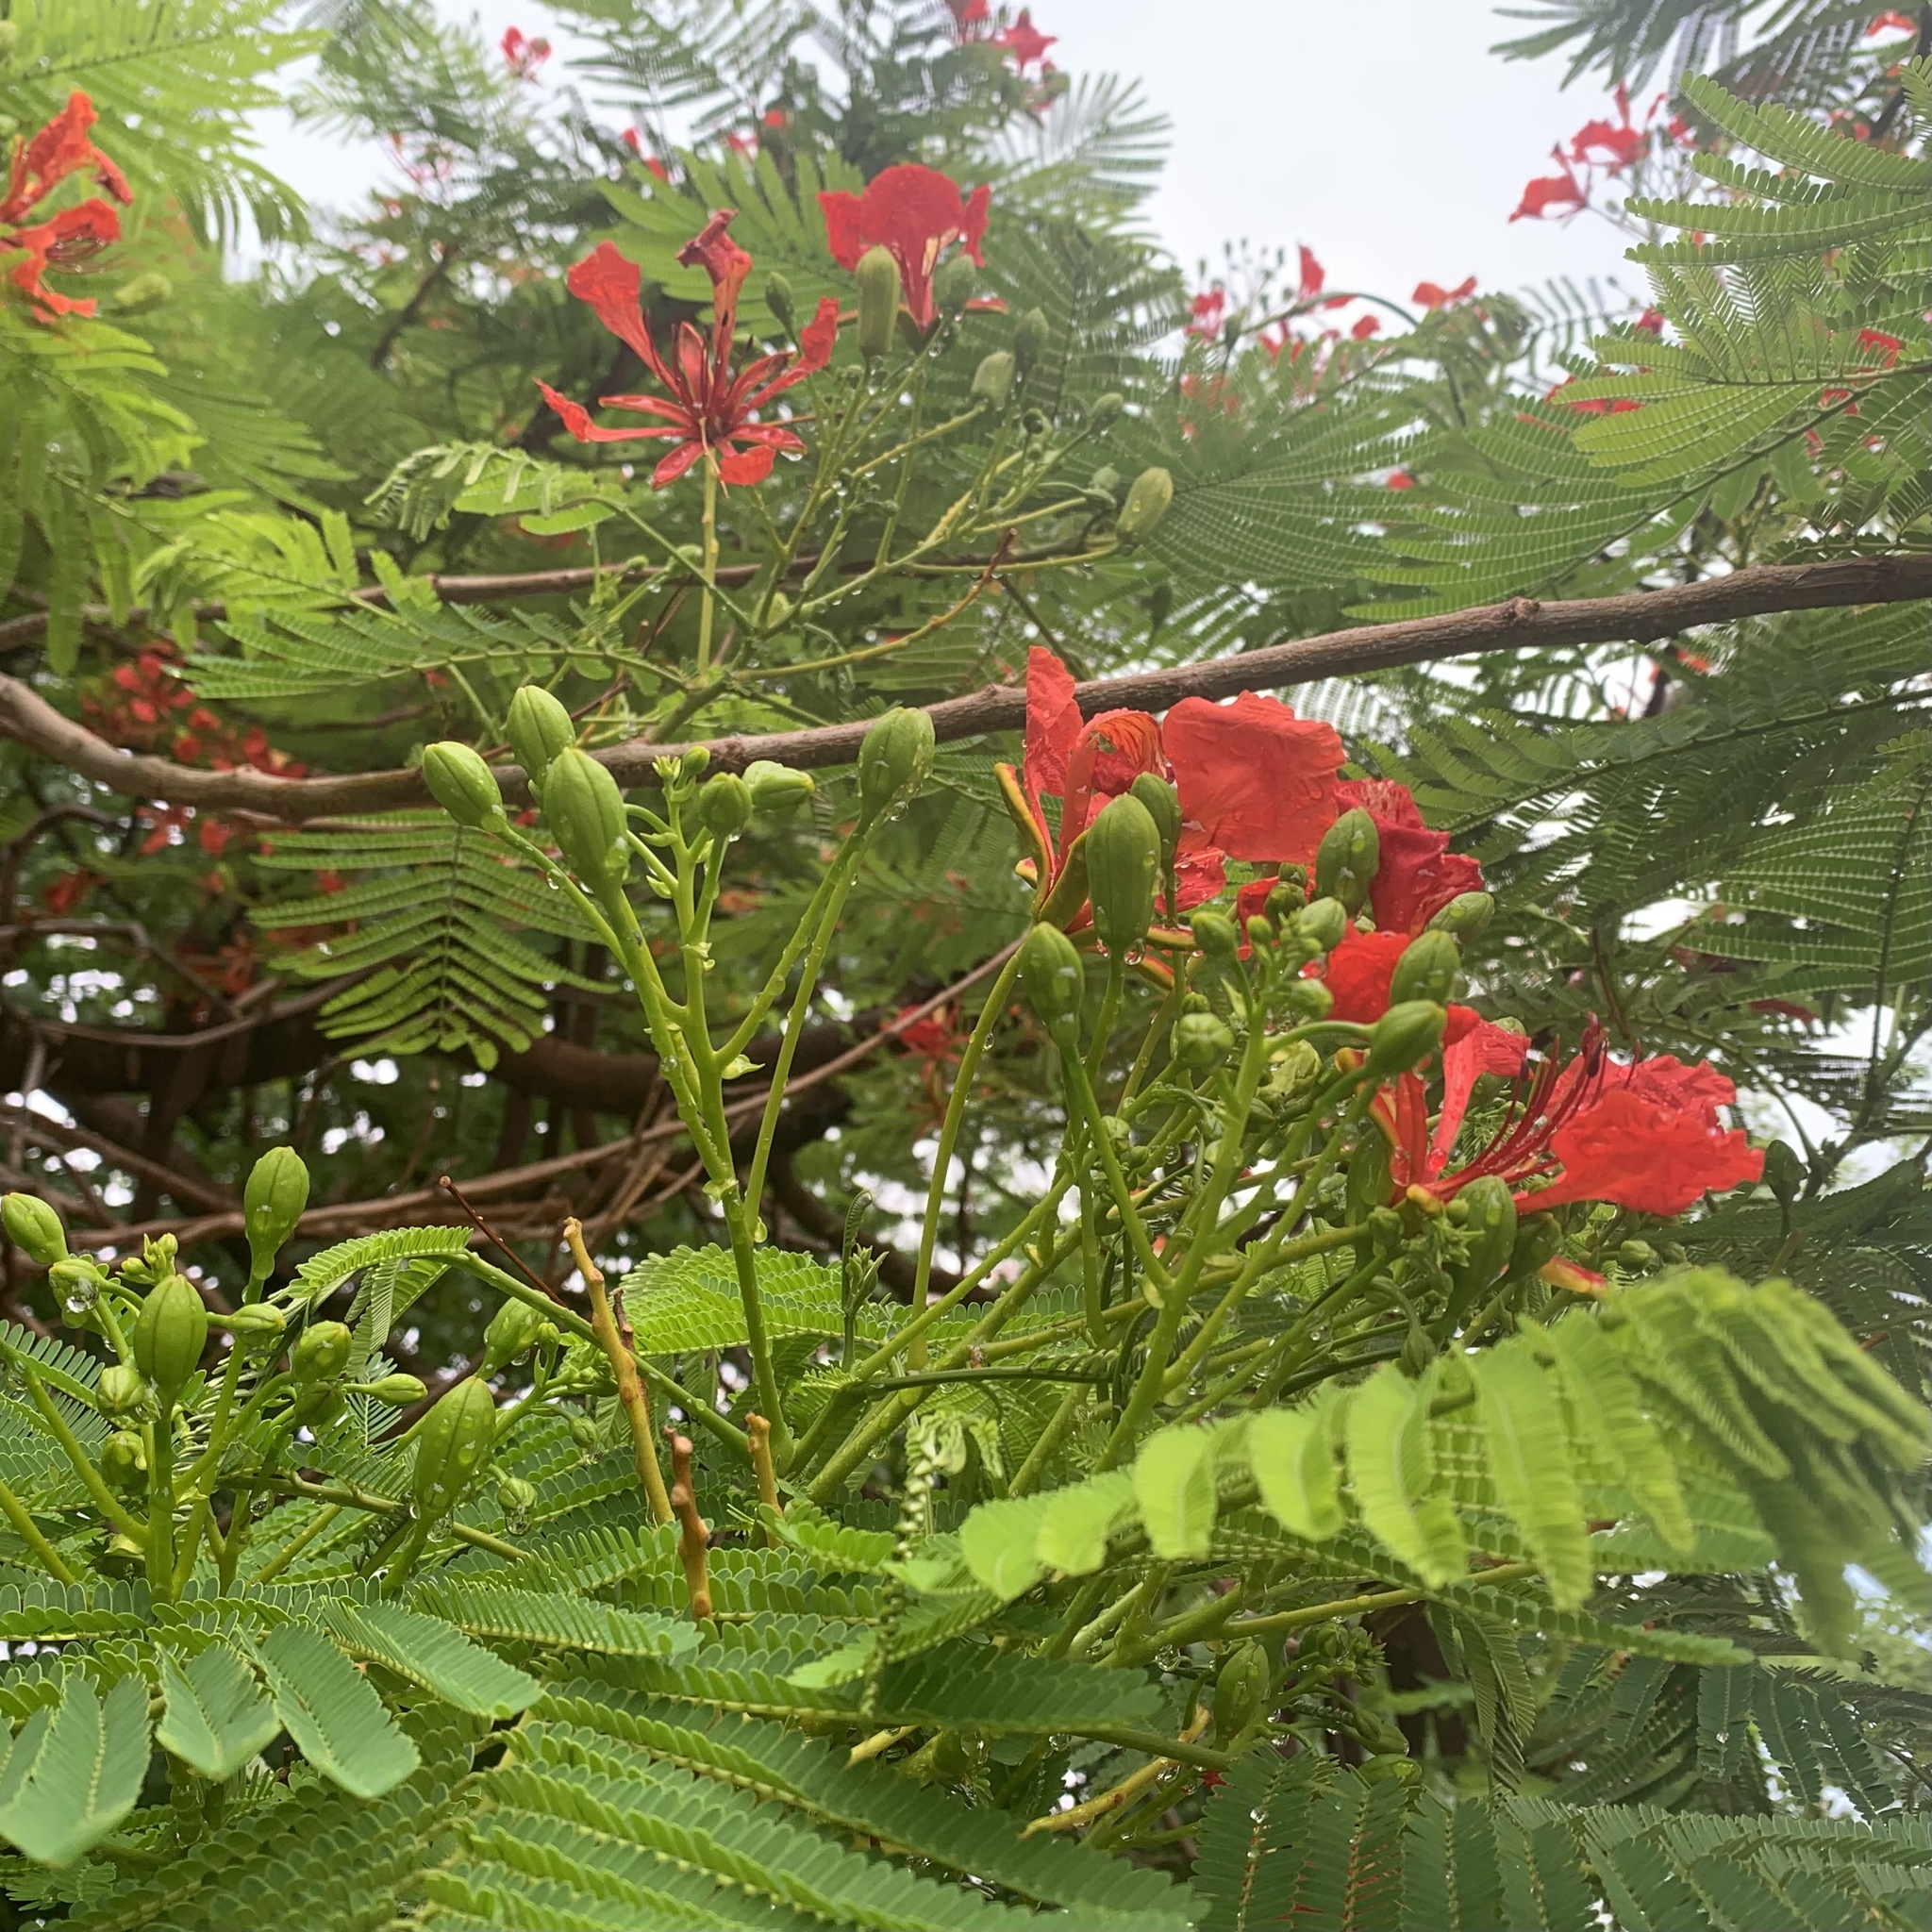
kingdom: Plantae
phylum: Tracheophyta
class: Magnoliopsida
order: Fabales
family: Fabaceae
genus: Delonix
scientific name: Delonix regia
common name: Royal poinciana
